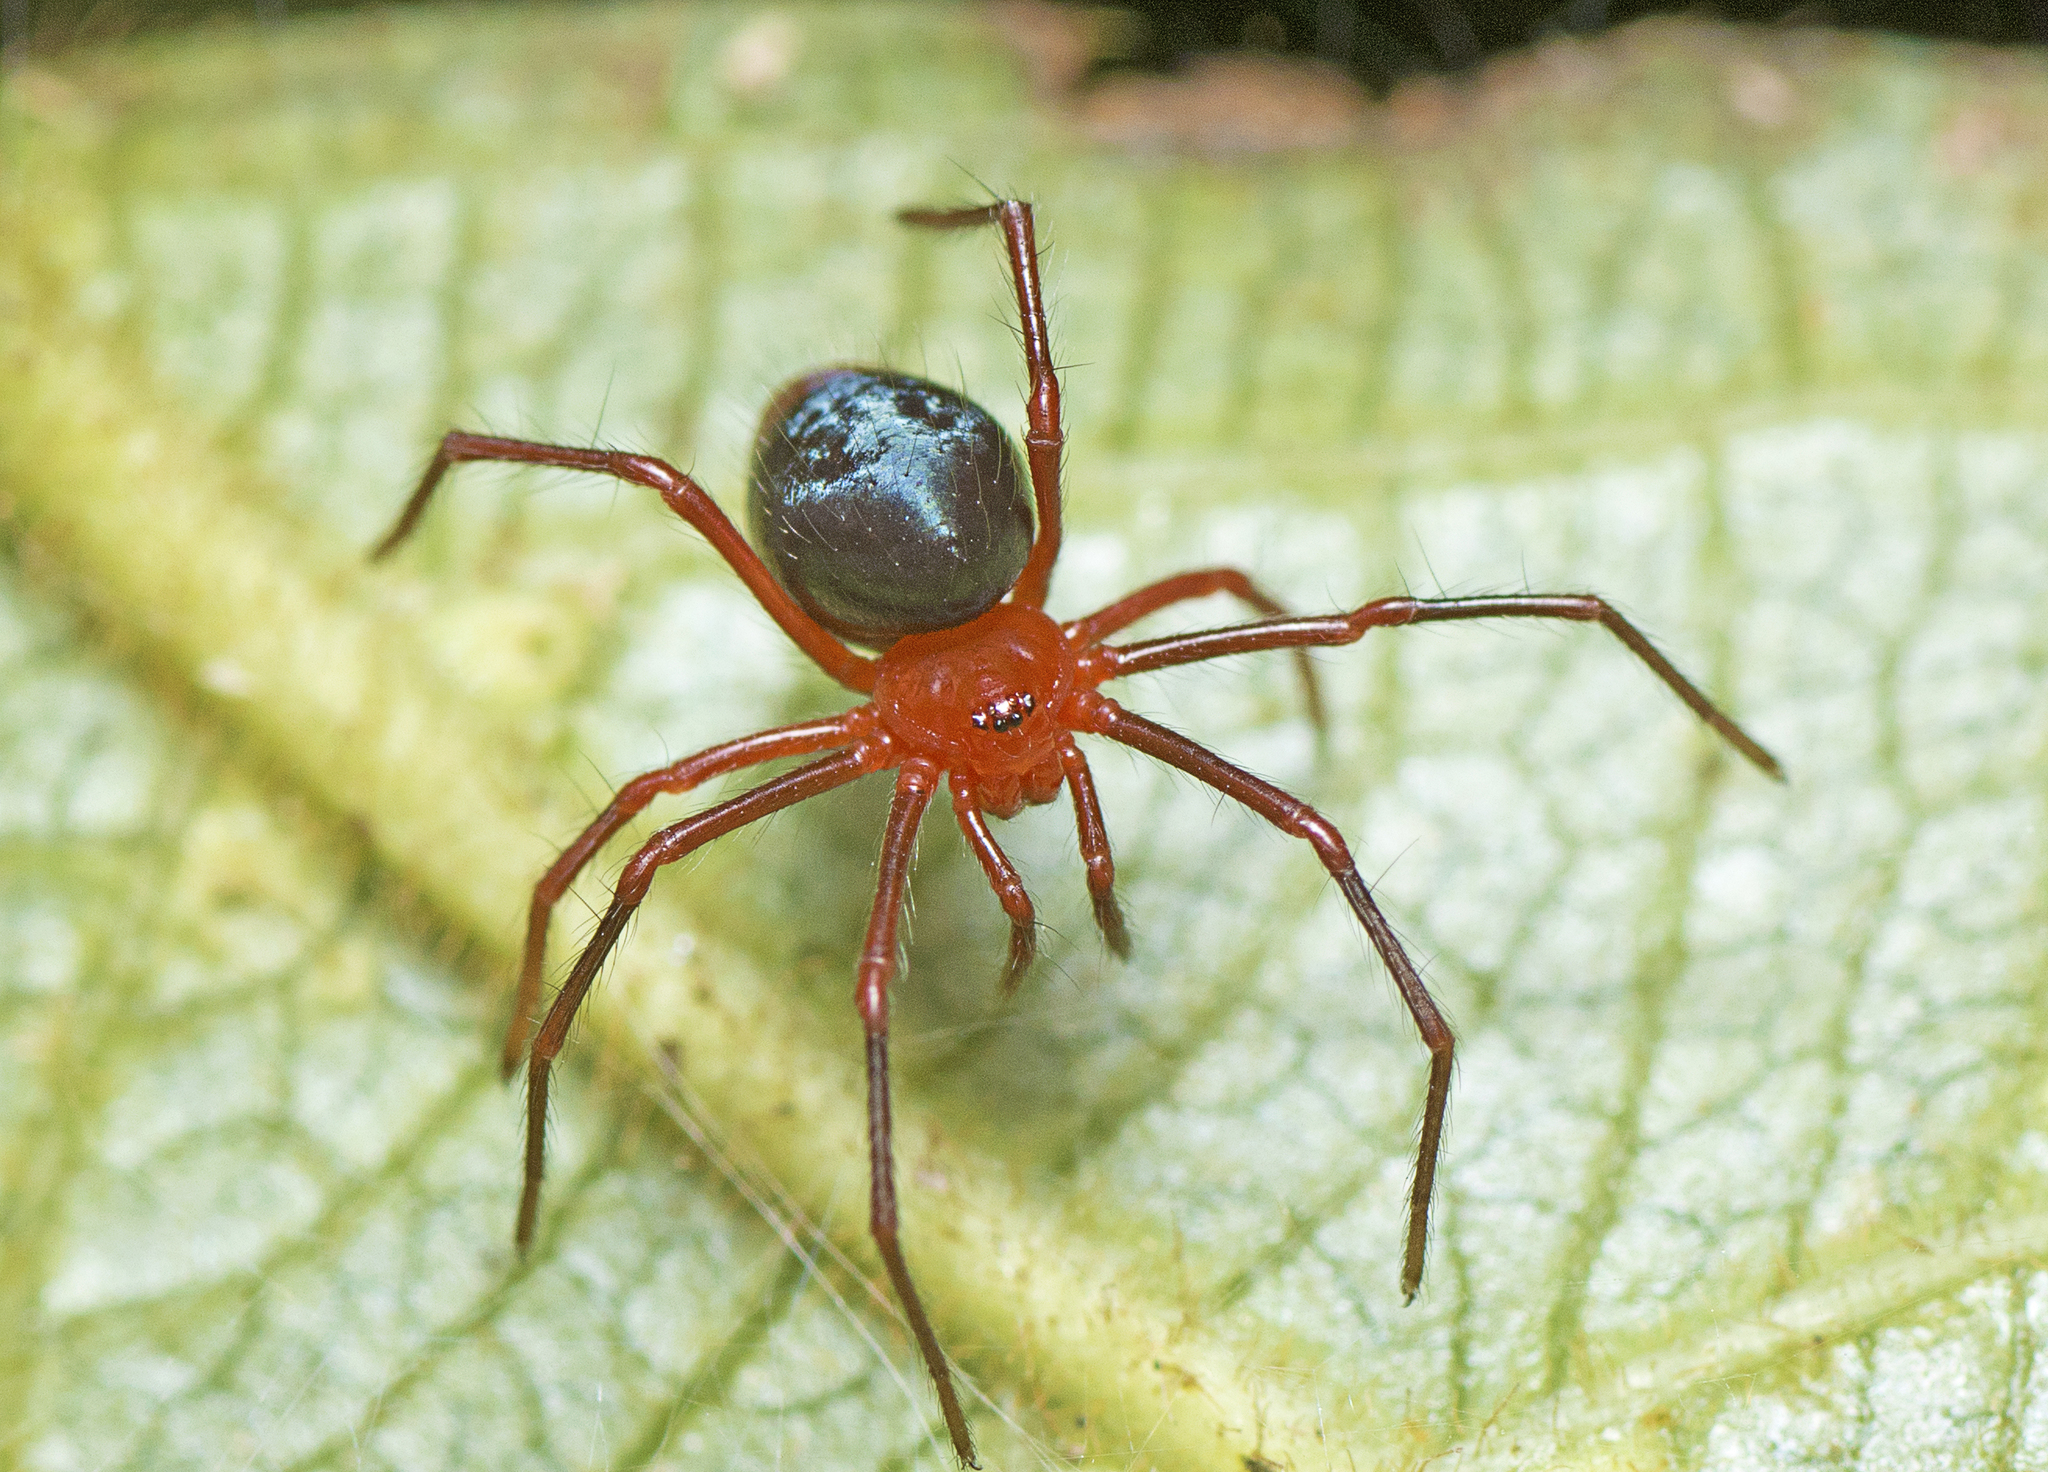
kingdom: Animalia
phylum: Arthropoda
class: Arachnida
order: Araneae
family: Nicodamidae
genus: Dimidamus
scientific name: Dimidamus dimidiatus
